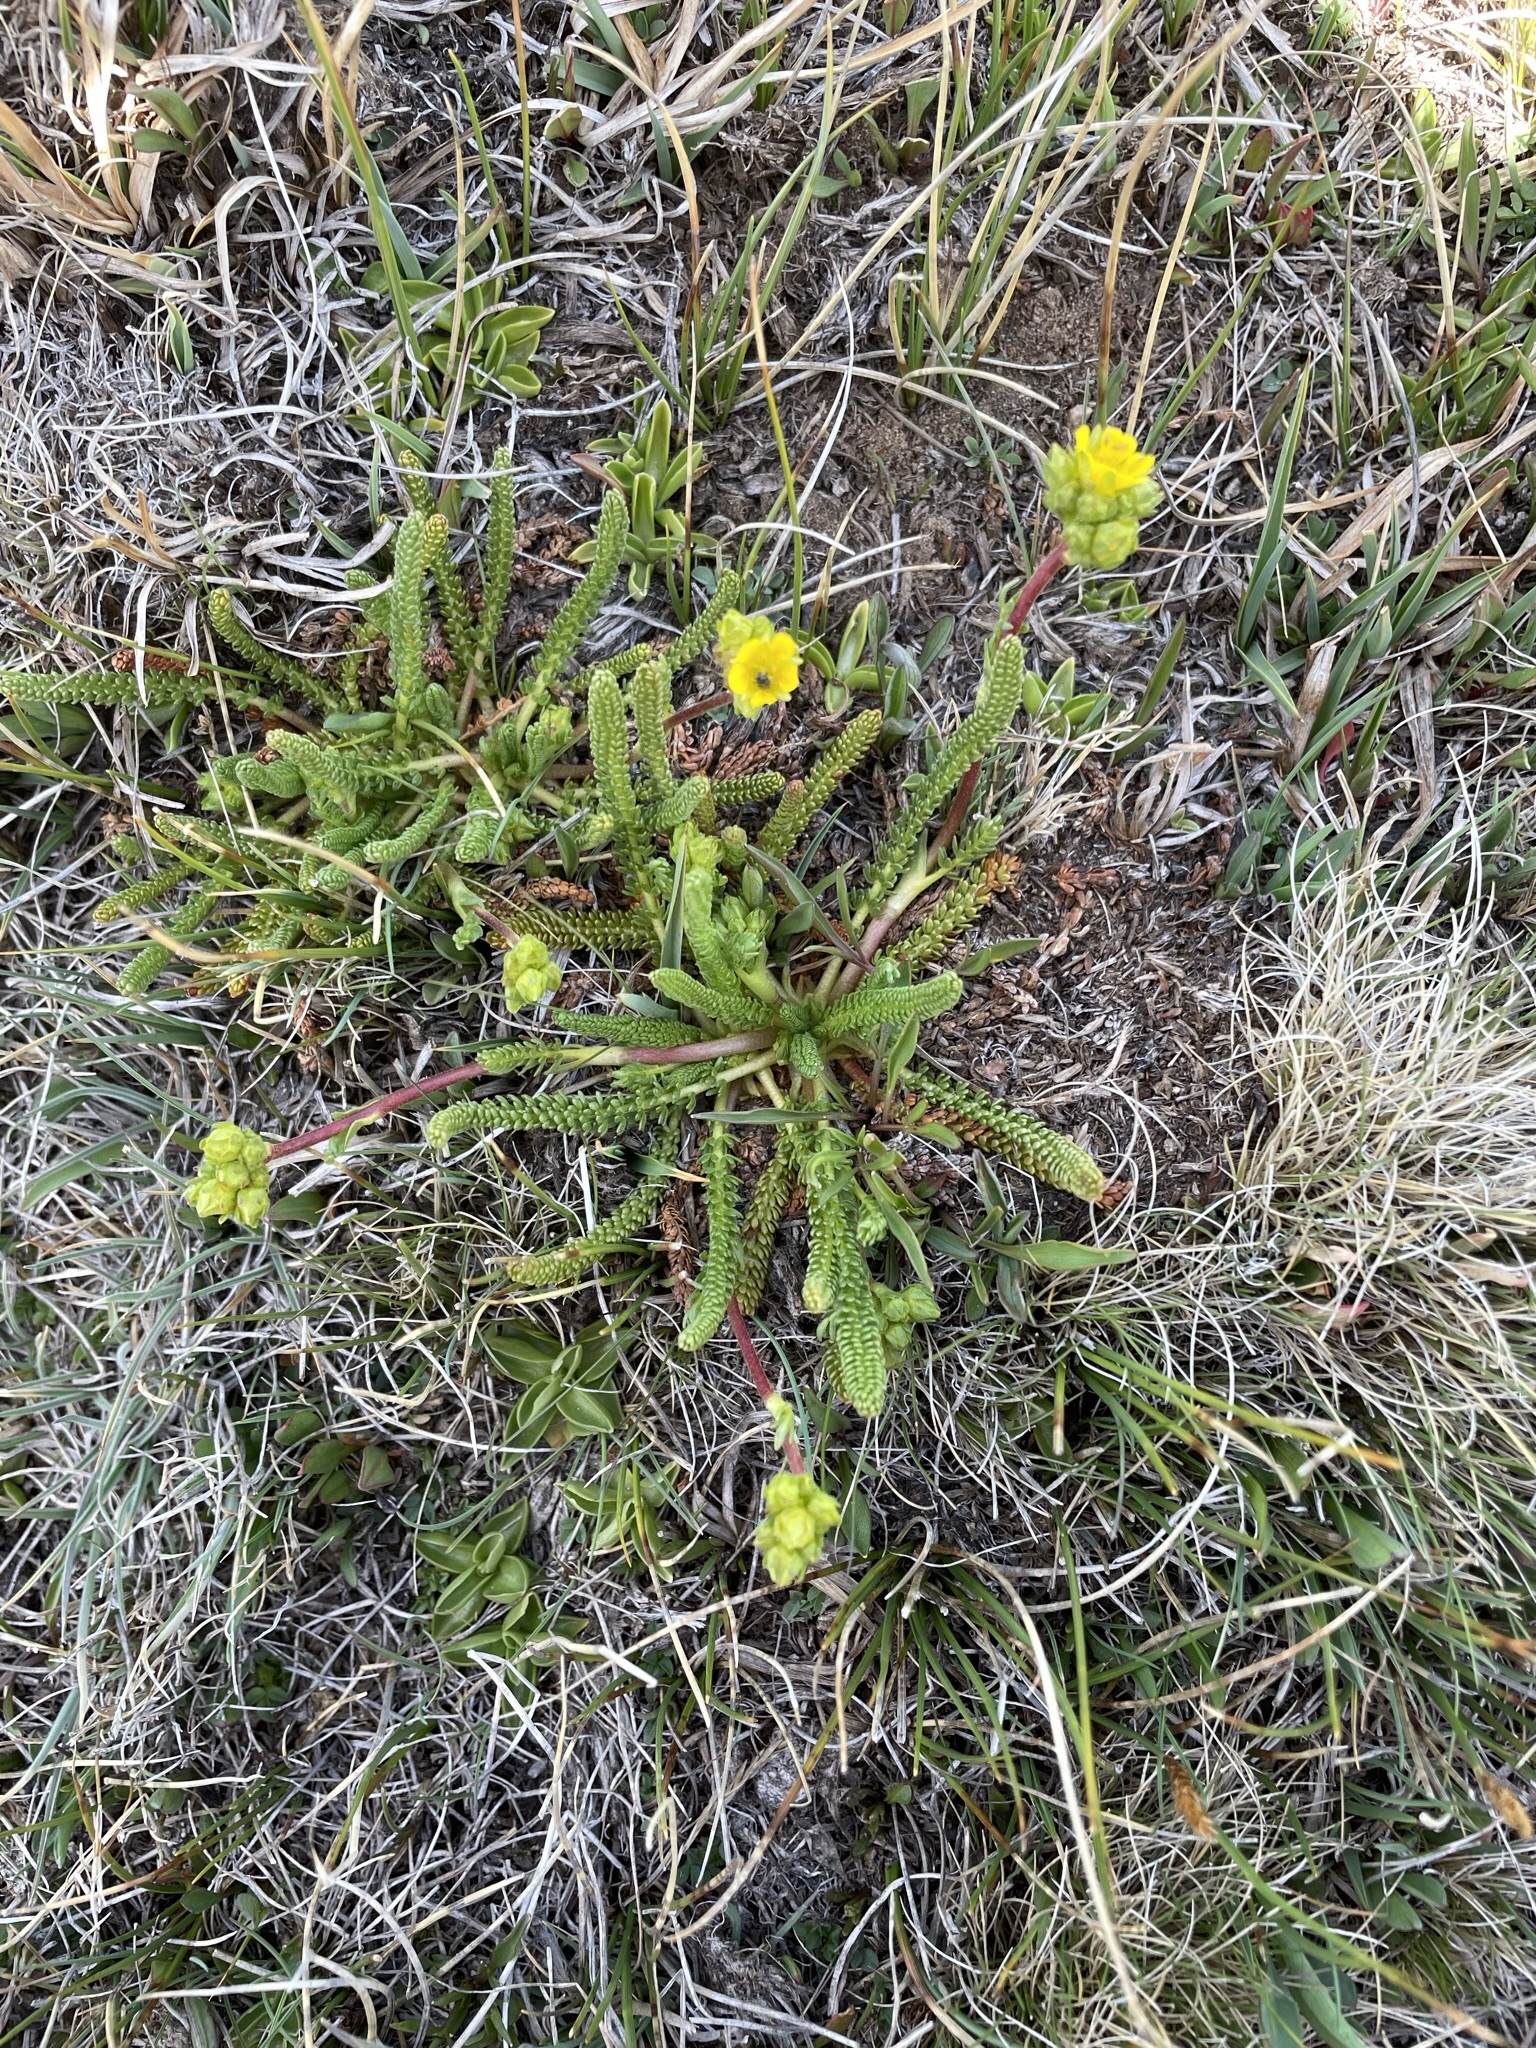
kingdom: Plantae
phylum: Tracheophyta
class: Magnoliopsida
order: Rosales
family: Rosaceae
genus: Potentilla
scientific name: Potentilla lycopodioides
